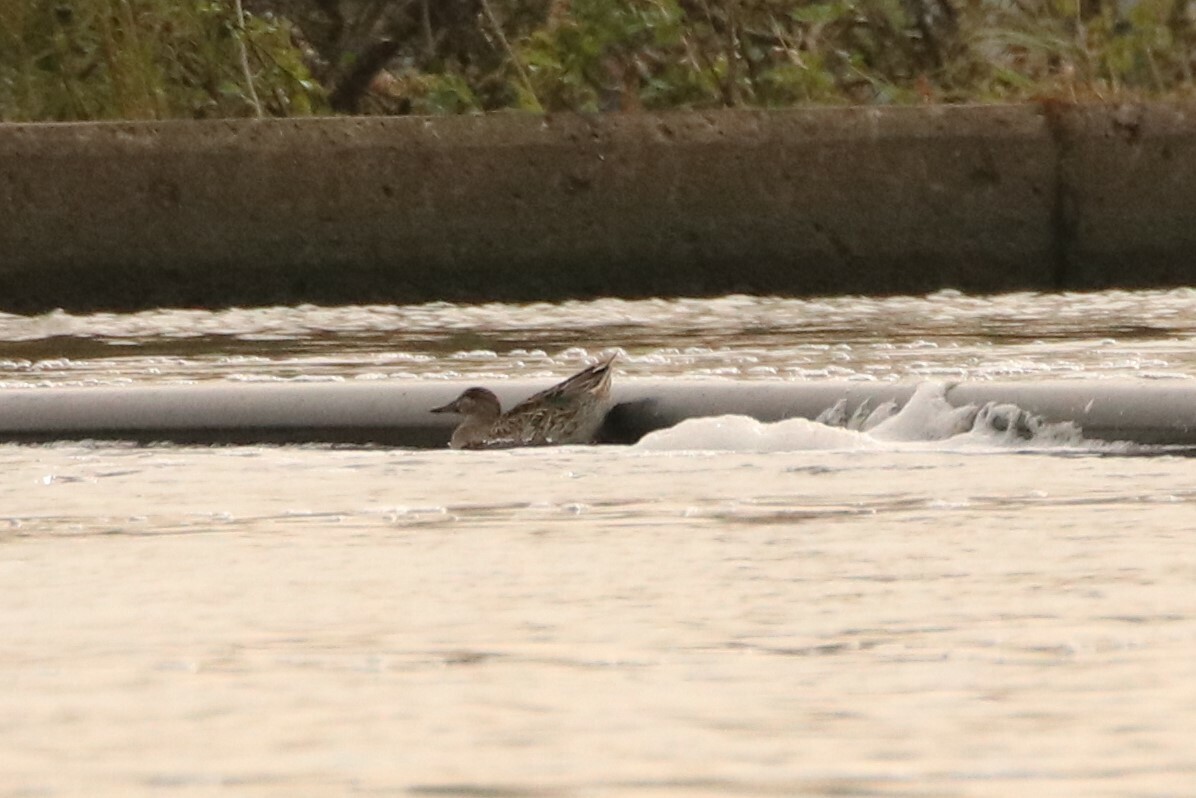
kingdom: Animalia
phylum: Chordata
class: Aves
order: Anseriformes
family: Anatidae
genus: Anas
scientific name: Anas crecca
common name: Eurasian teal
